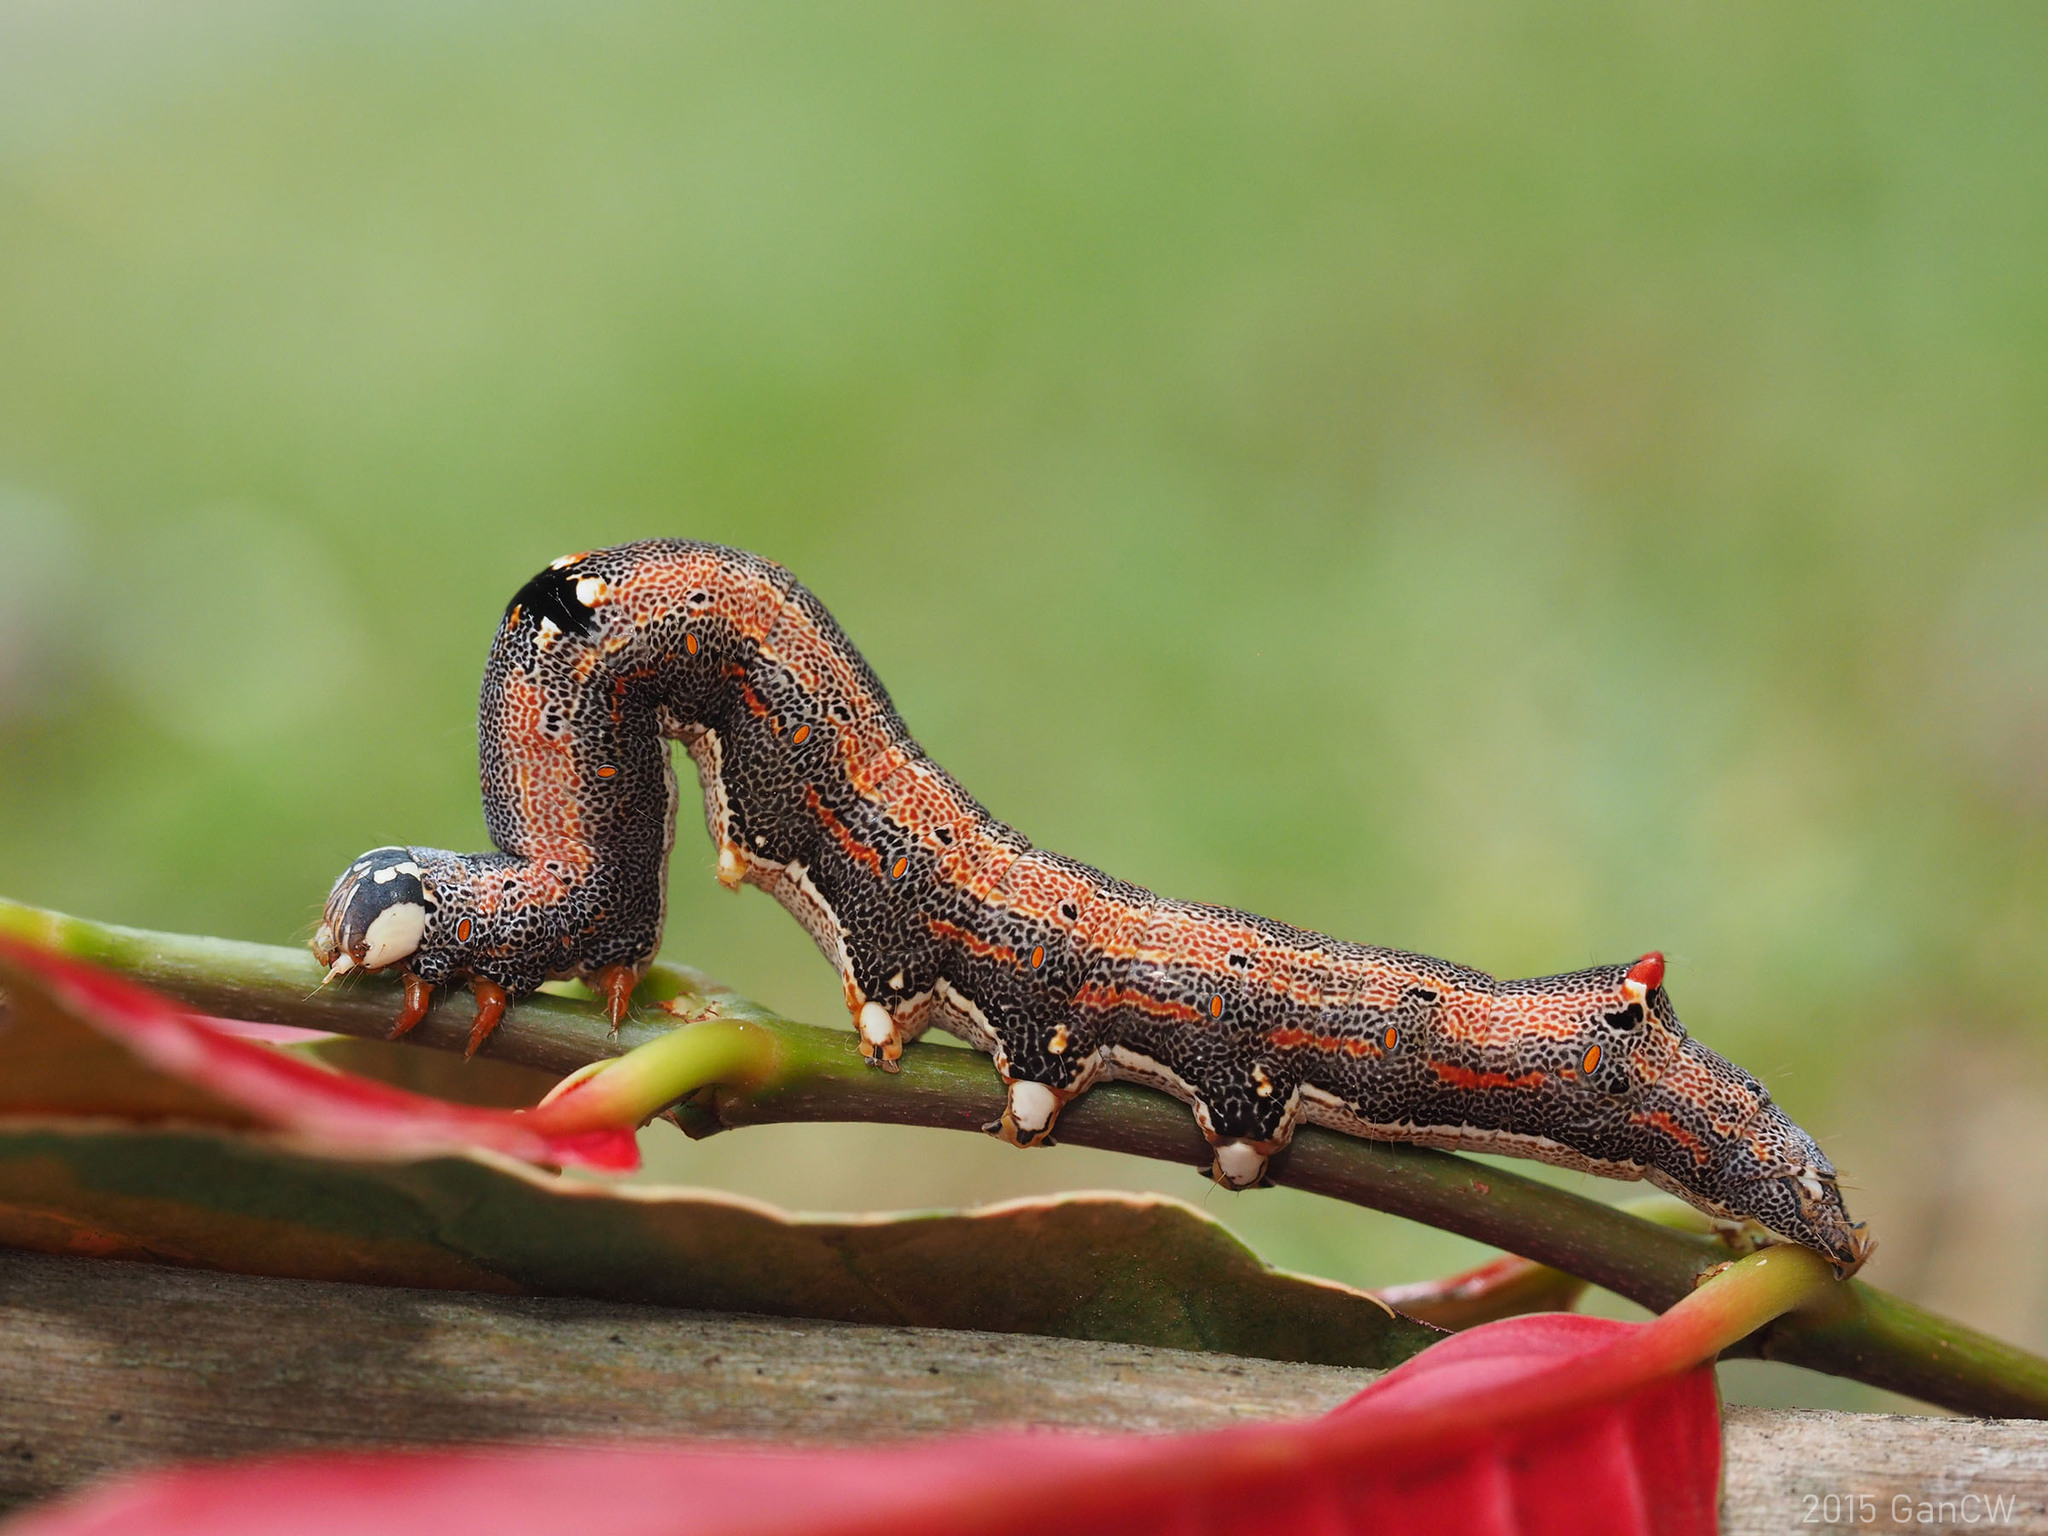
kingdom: Animalia
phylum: Arthropoda
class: Insecta
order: Lepidoptera
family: Erebidae
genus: Achaea
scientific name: Achaea janata
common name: Croton caterpillar
